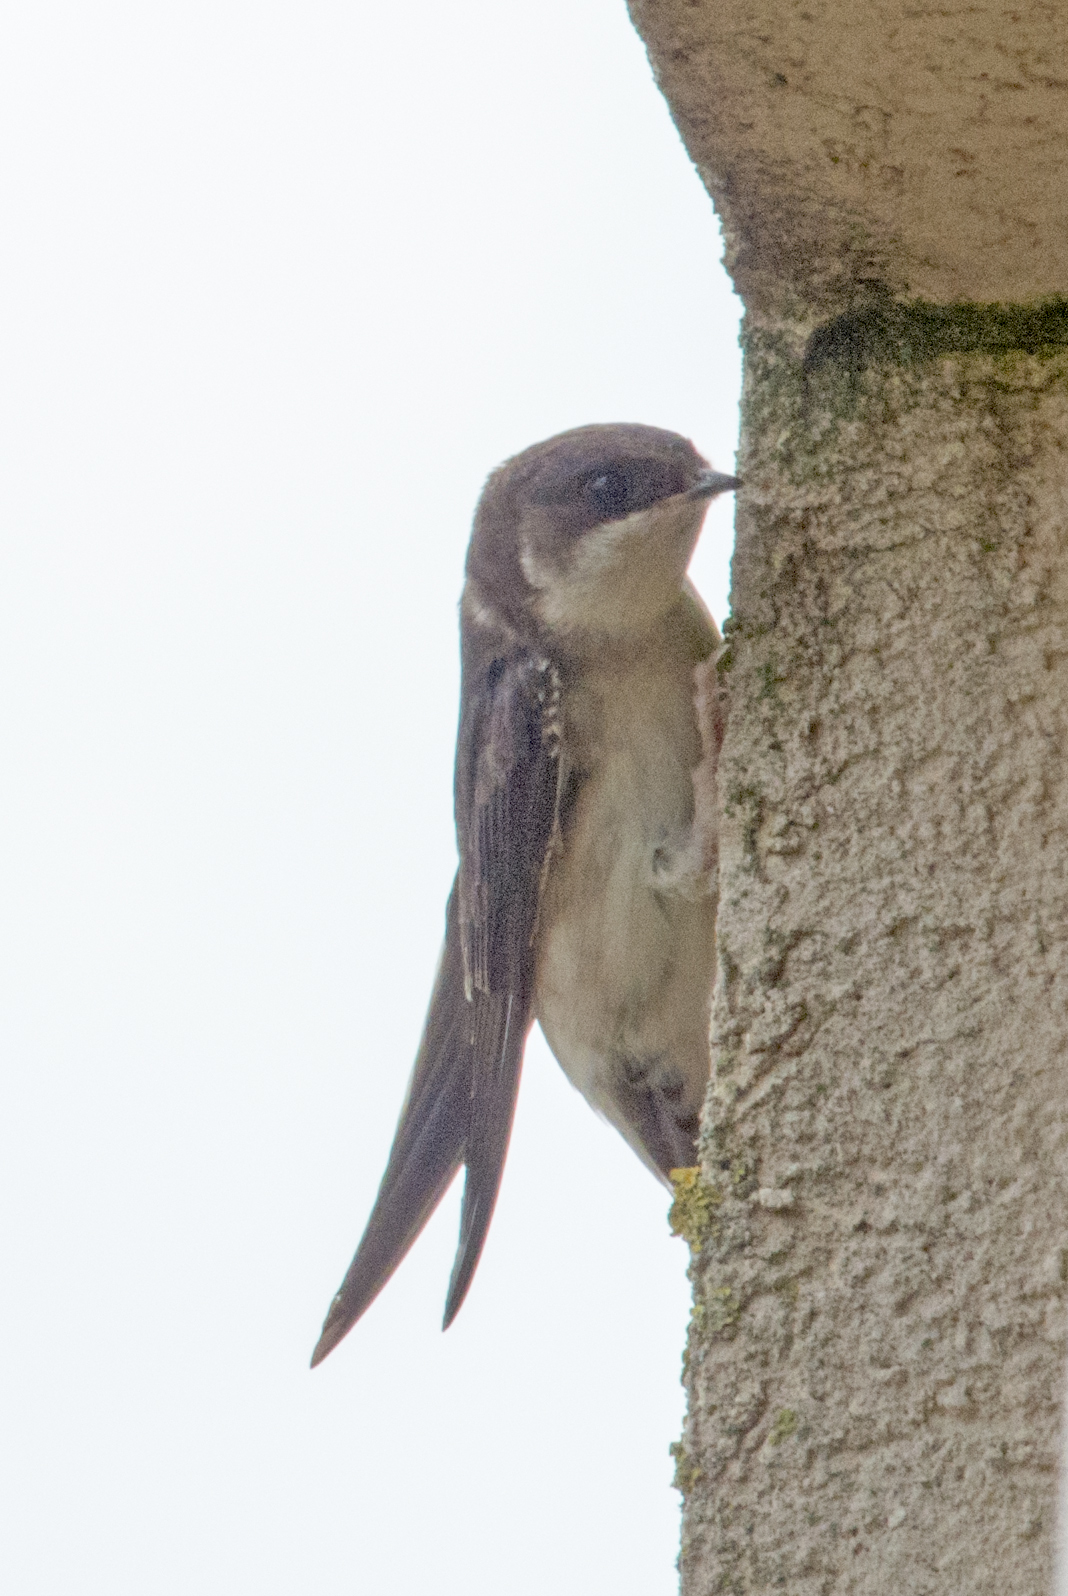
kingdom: Animalia
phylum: Chordata
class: Aves
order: Passeriformes
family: Hirundinidae
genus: Riparia
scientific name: Riparia riparia
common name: Sand martin
